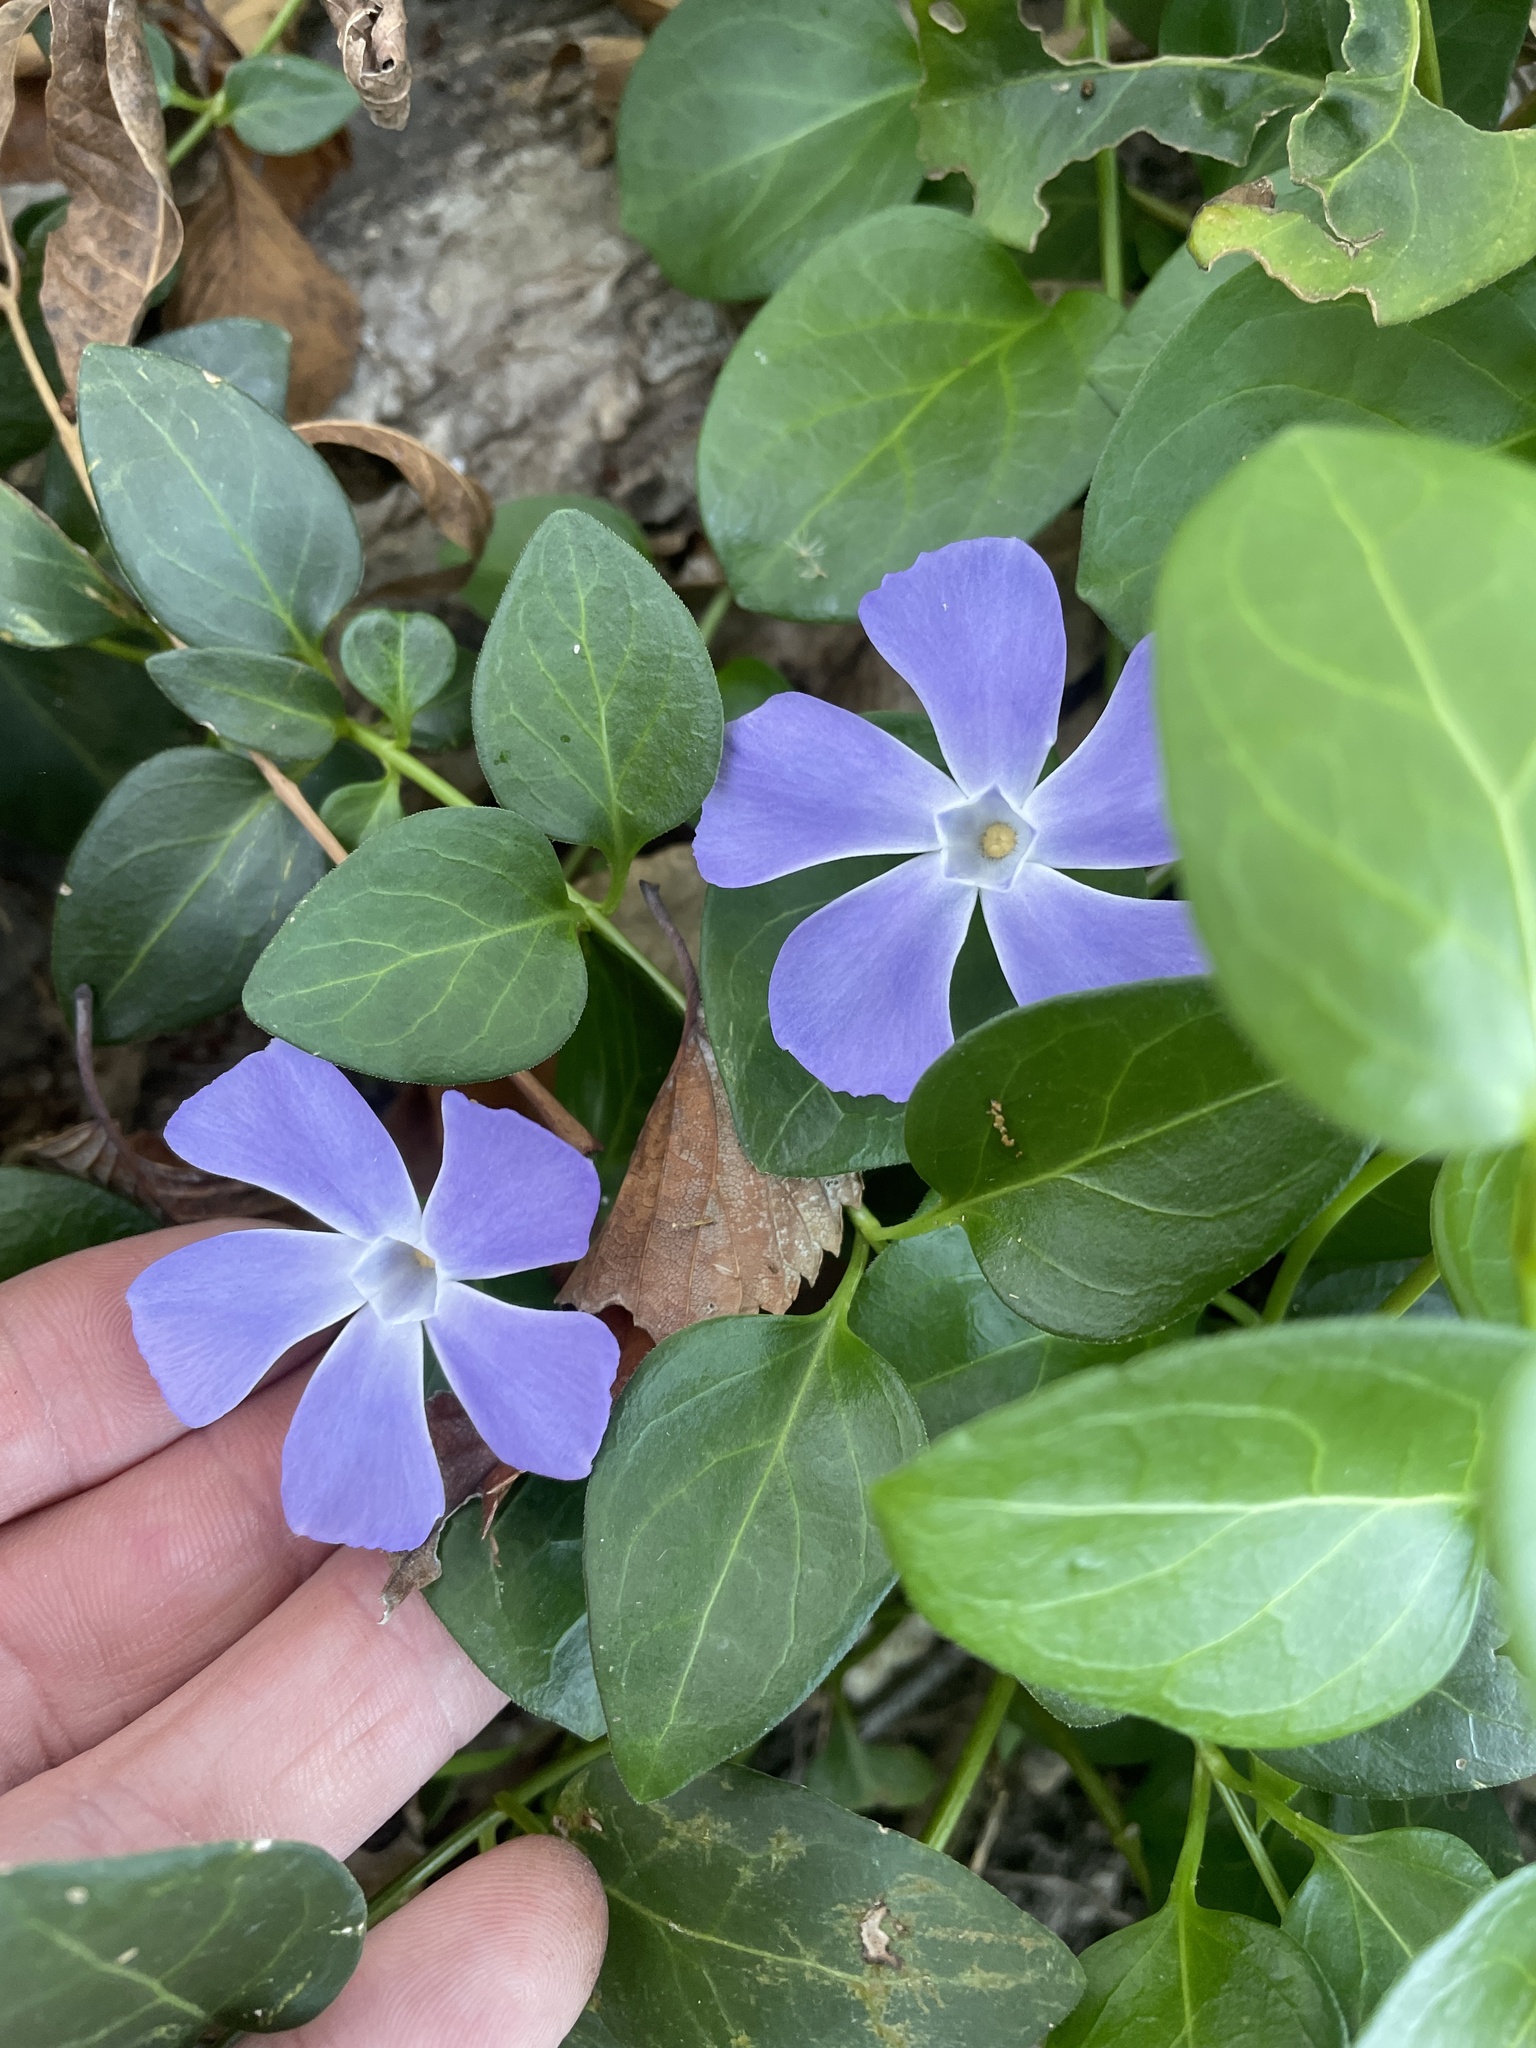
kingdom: Plantae
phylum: Tracheophyta
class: Magnoliopsida
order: Gentianales
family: Apocynaceae
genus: Vinca
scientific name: Vinca major
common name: Greater periwinkle
